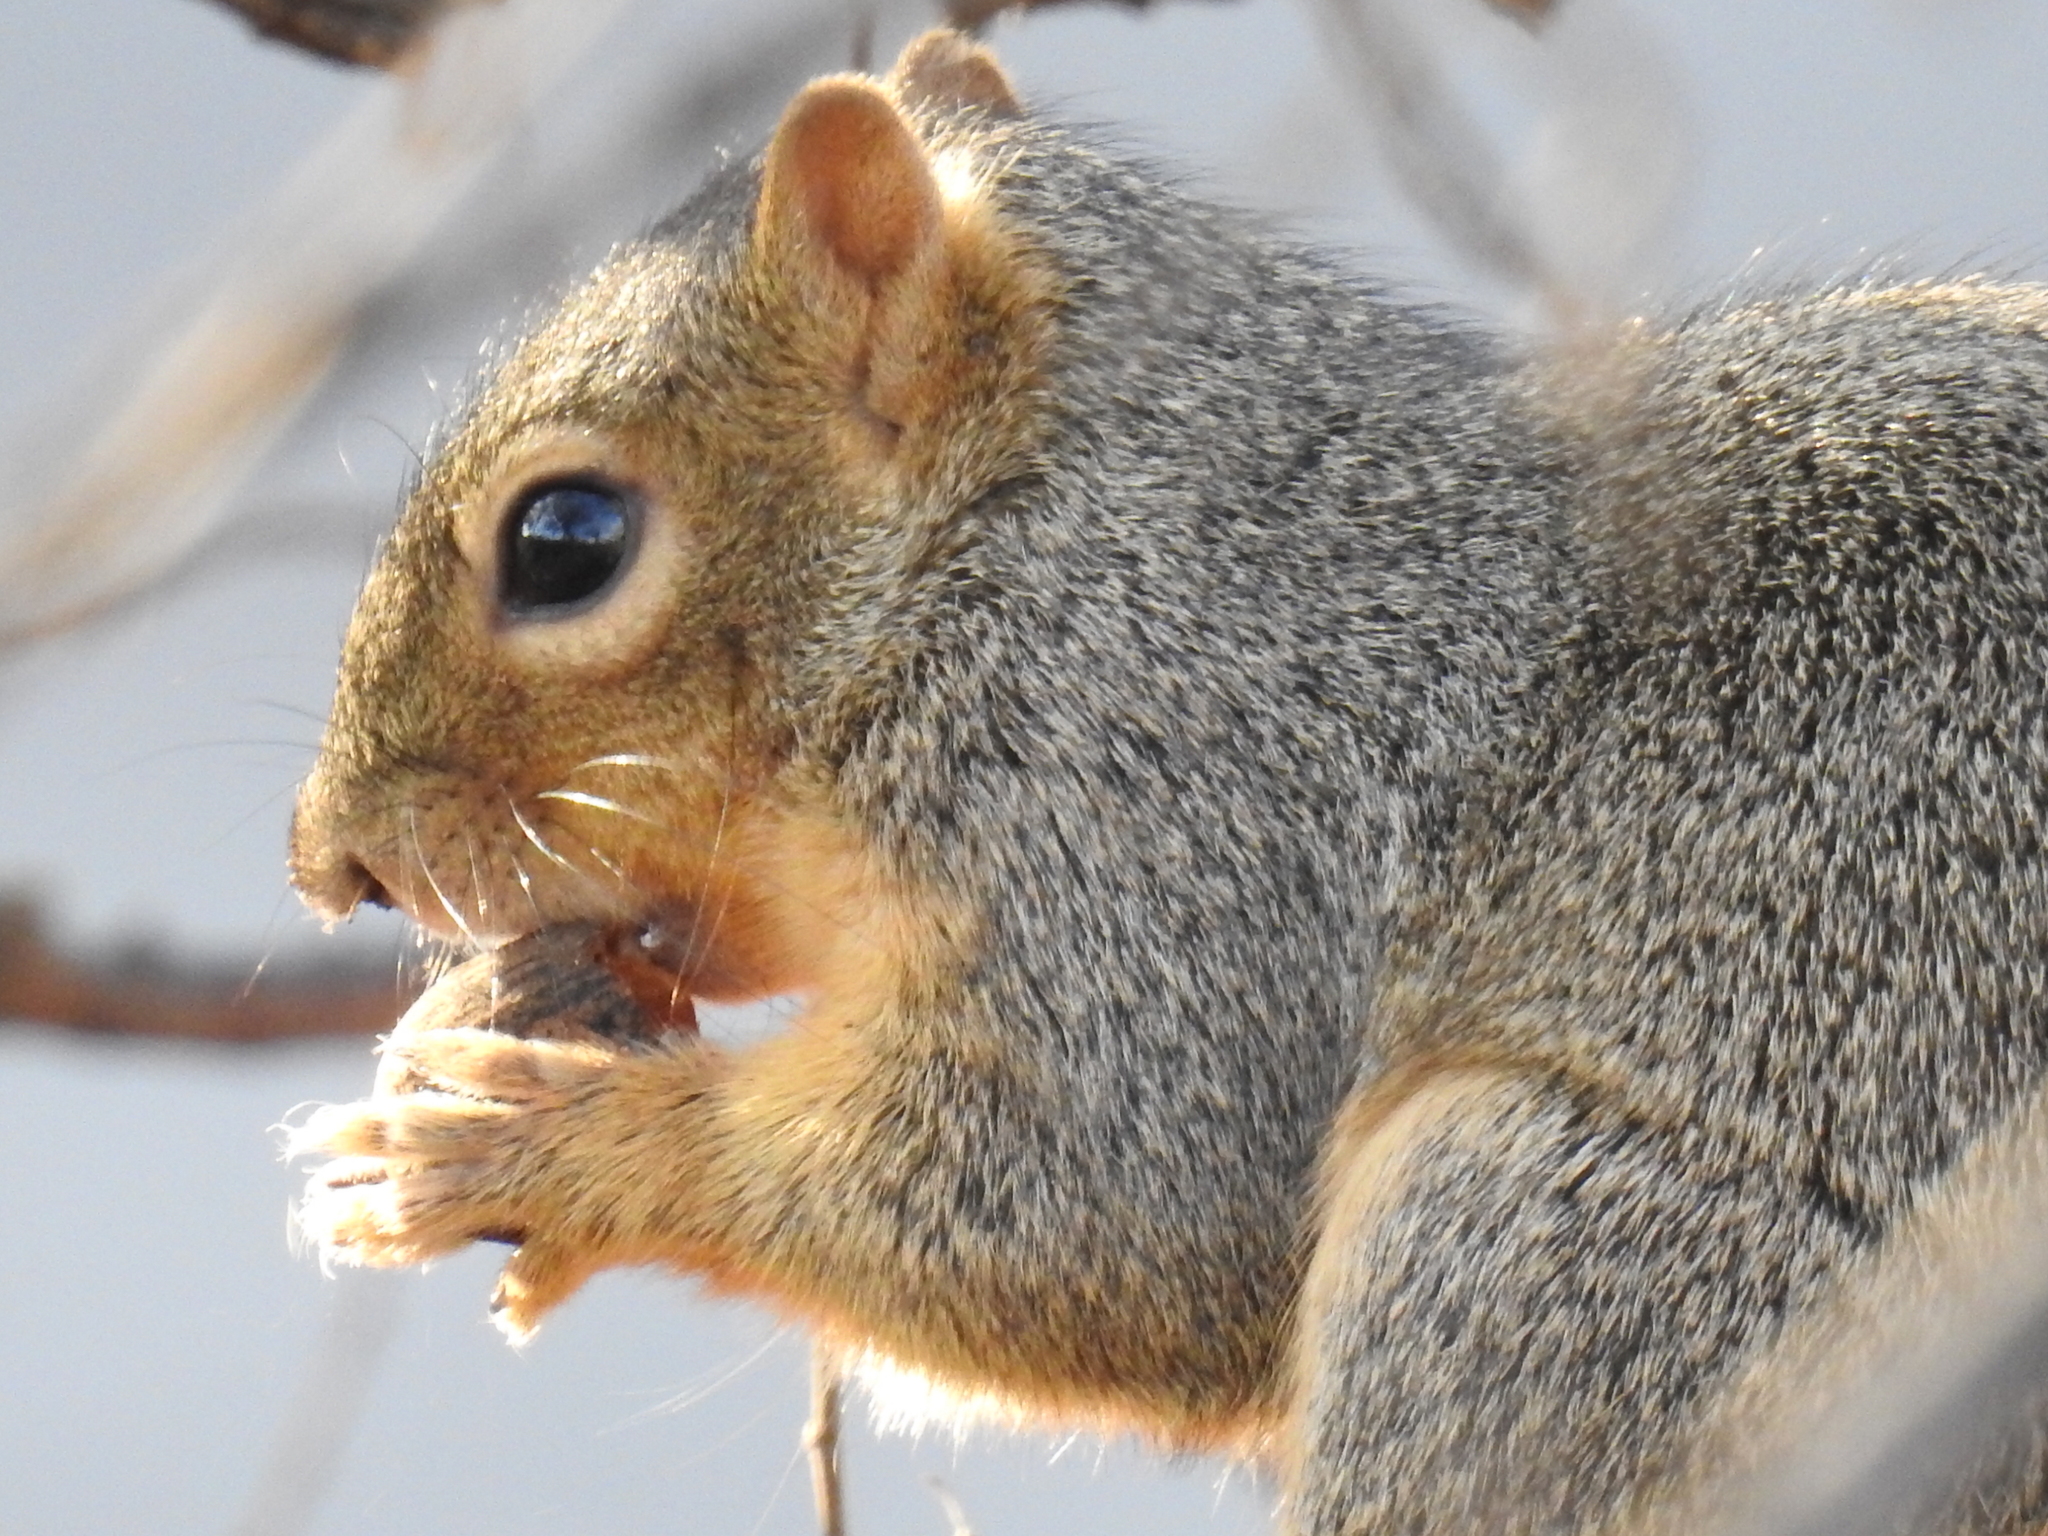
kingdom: Animalia
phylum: Chordata
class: Mammalia
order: Rodentia
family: Sciuridae
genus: Sciurus
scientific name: Sciurus niger
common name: Fox squirrel
